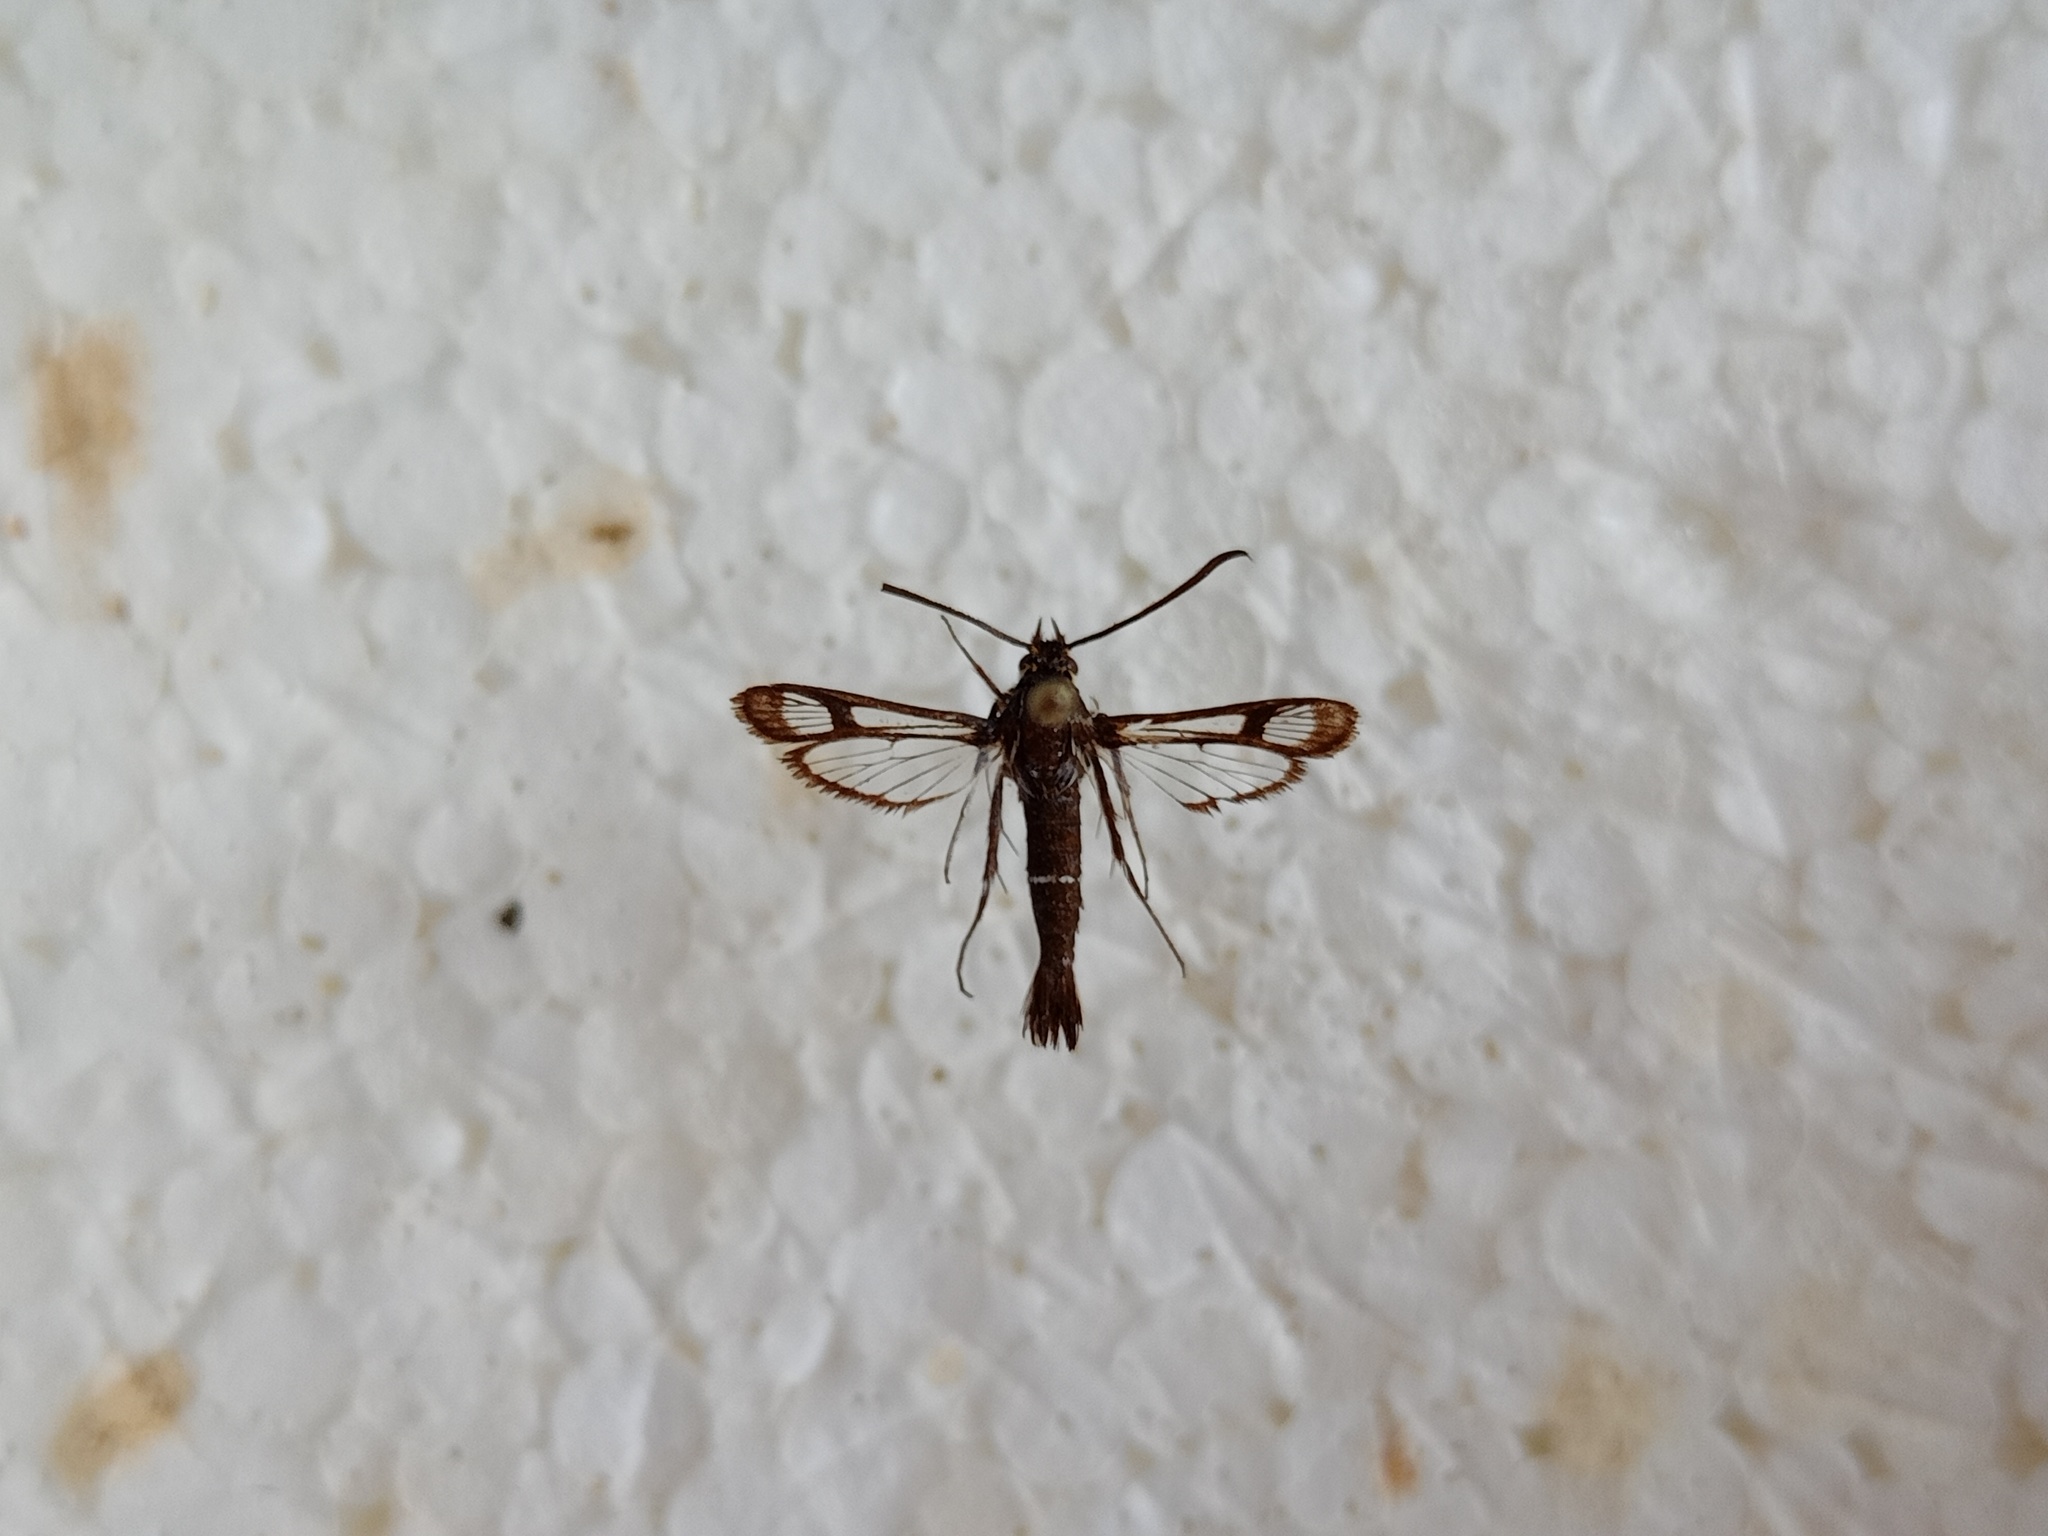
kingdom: Animalia
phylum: Arthropoda
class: Insecta
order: Lepidoptera
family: Sesiidae
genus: Pyropteron
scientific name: Pyropteron leucomelaena
